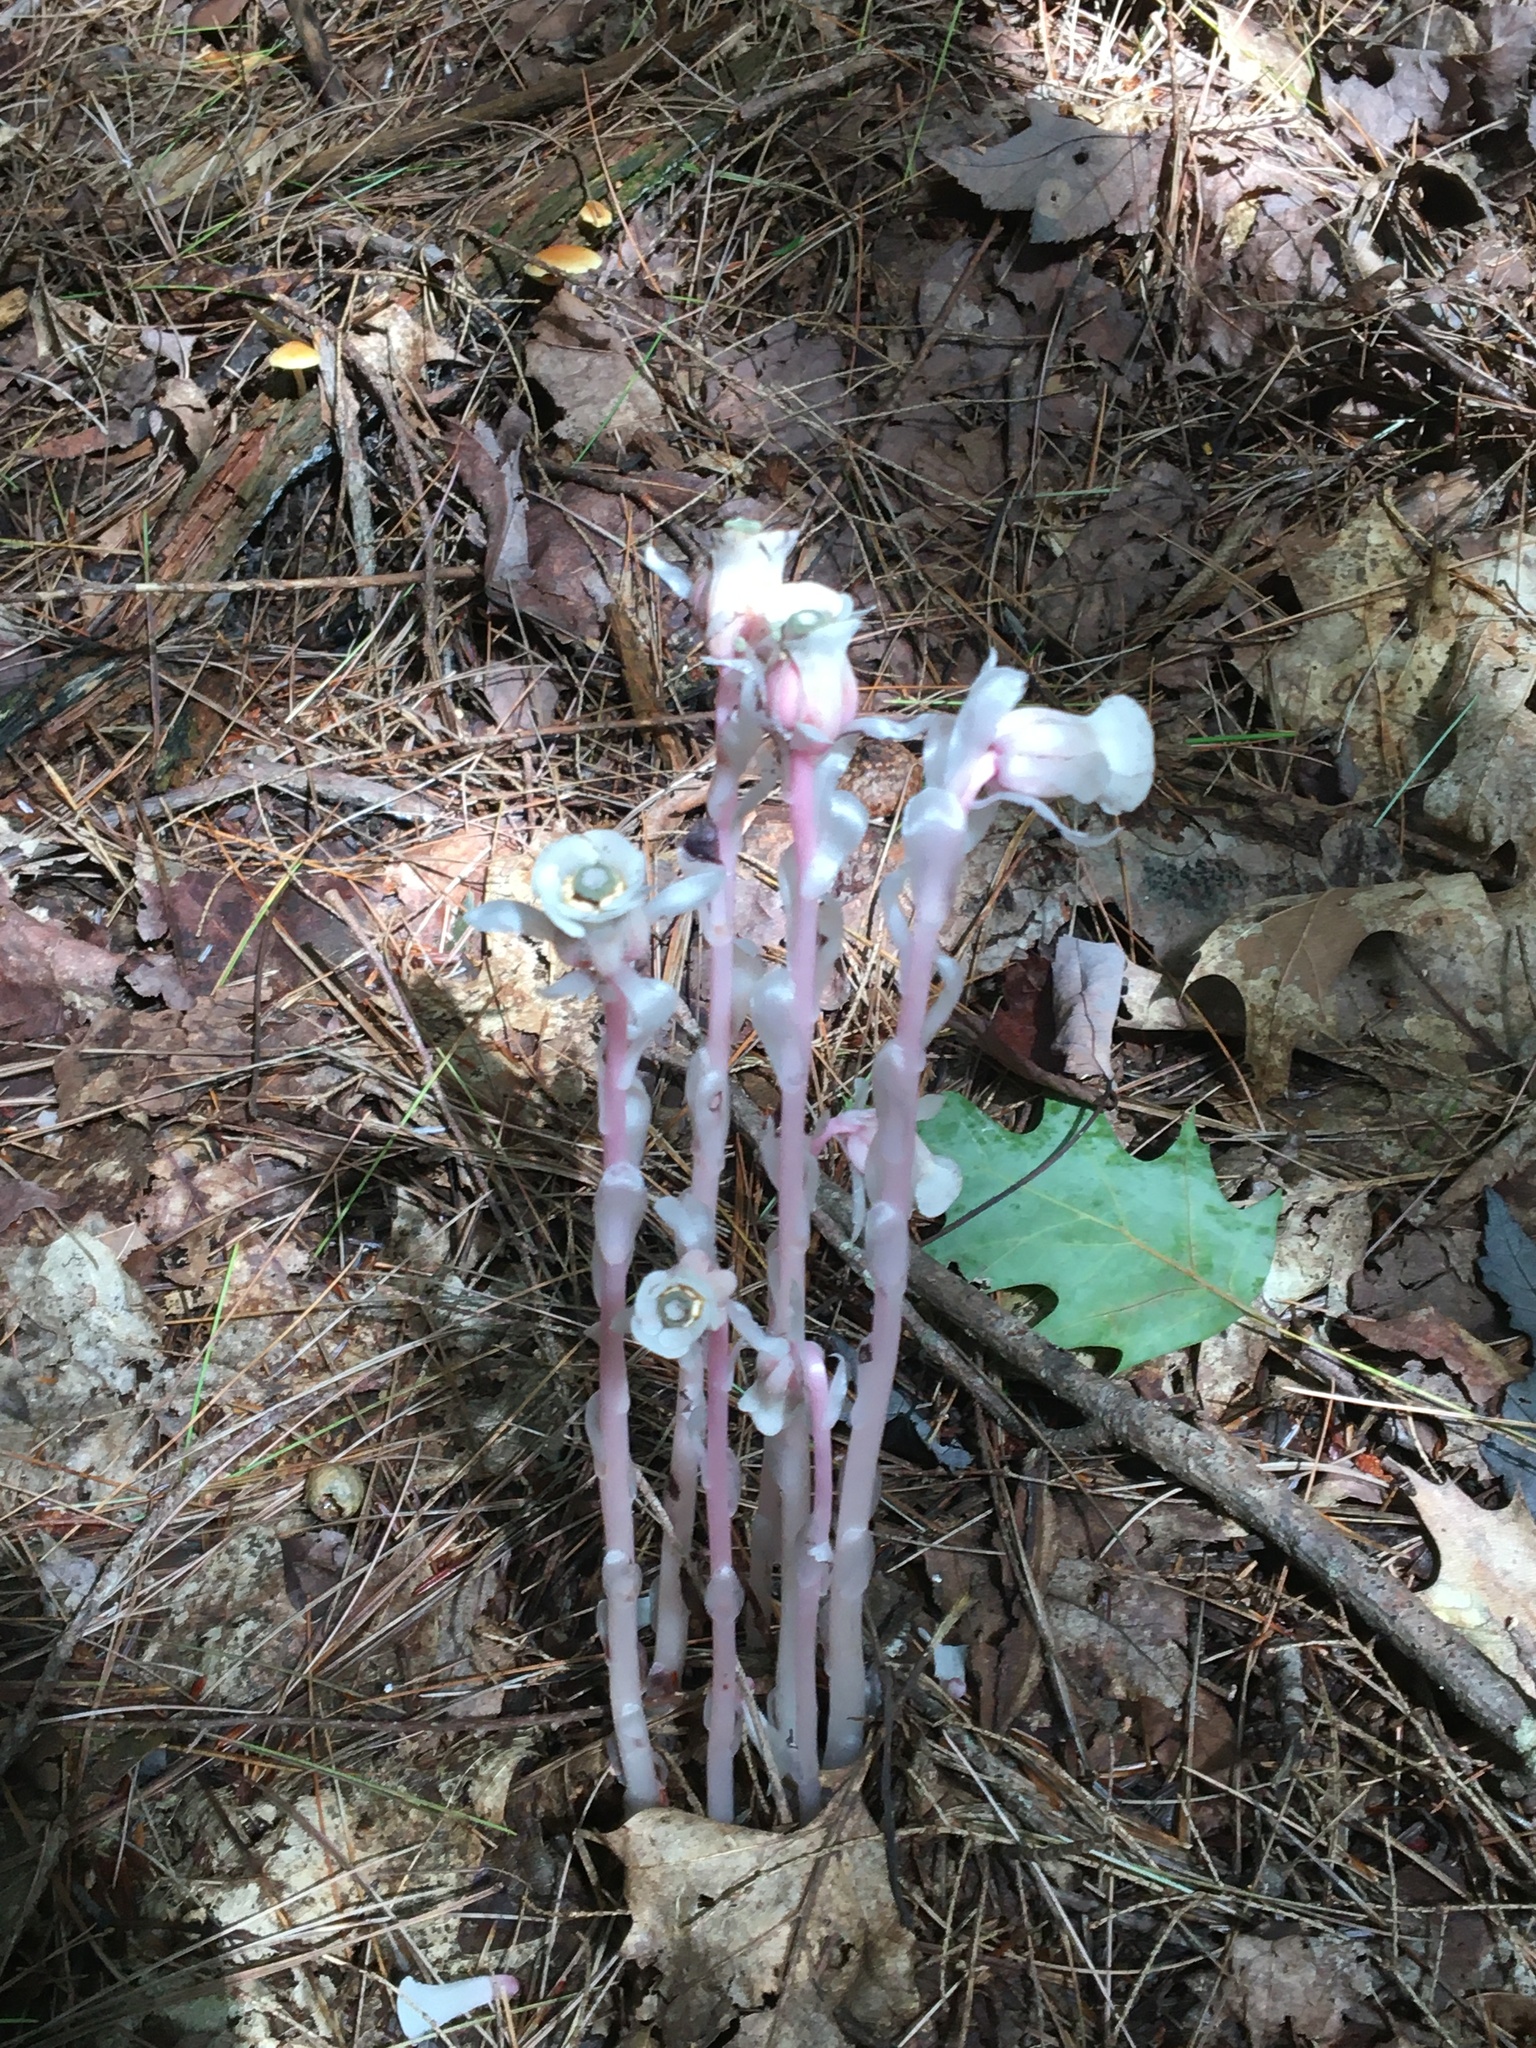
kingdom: Plantae
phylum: Tracheophyta
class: Magnoliopsida
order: Ericales
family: Ericaceae
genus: Monotropa
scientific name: Monotropa uniflora
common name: Convulsion root
